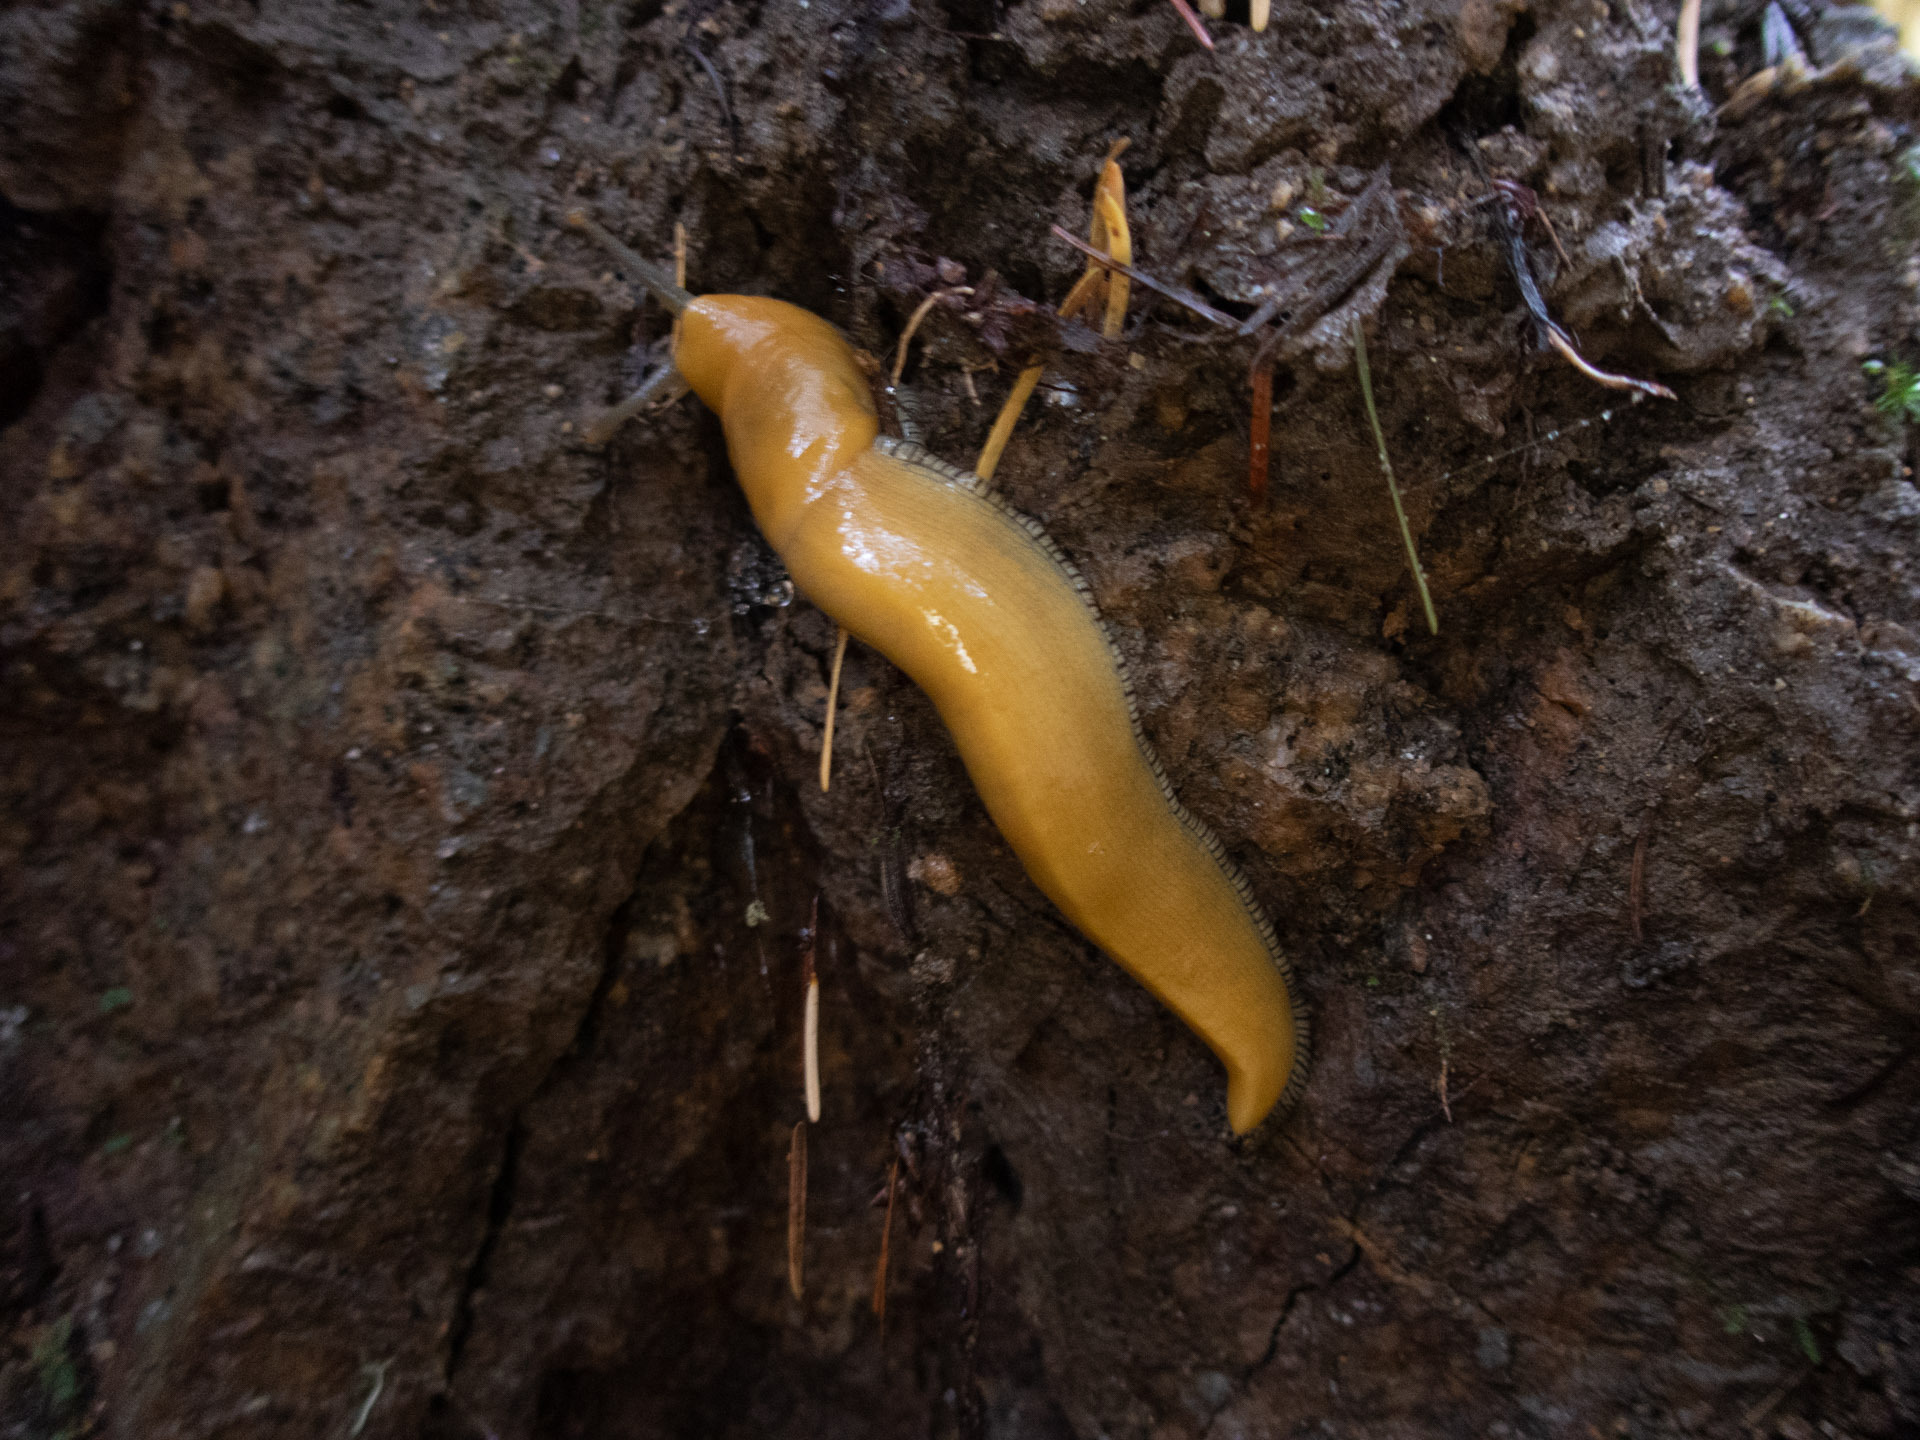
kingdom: Animalia
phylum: Mollusca
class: Gastropoda
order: Stylommatophora
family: Ariolimacidae
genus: Ariolimax
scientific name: Ariolimax dolichophallus
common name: Slender banana slug
